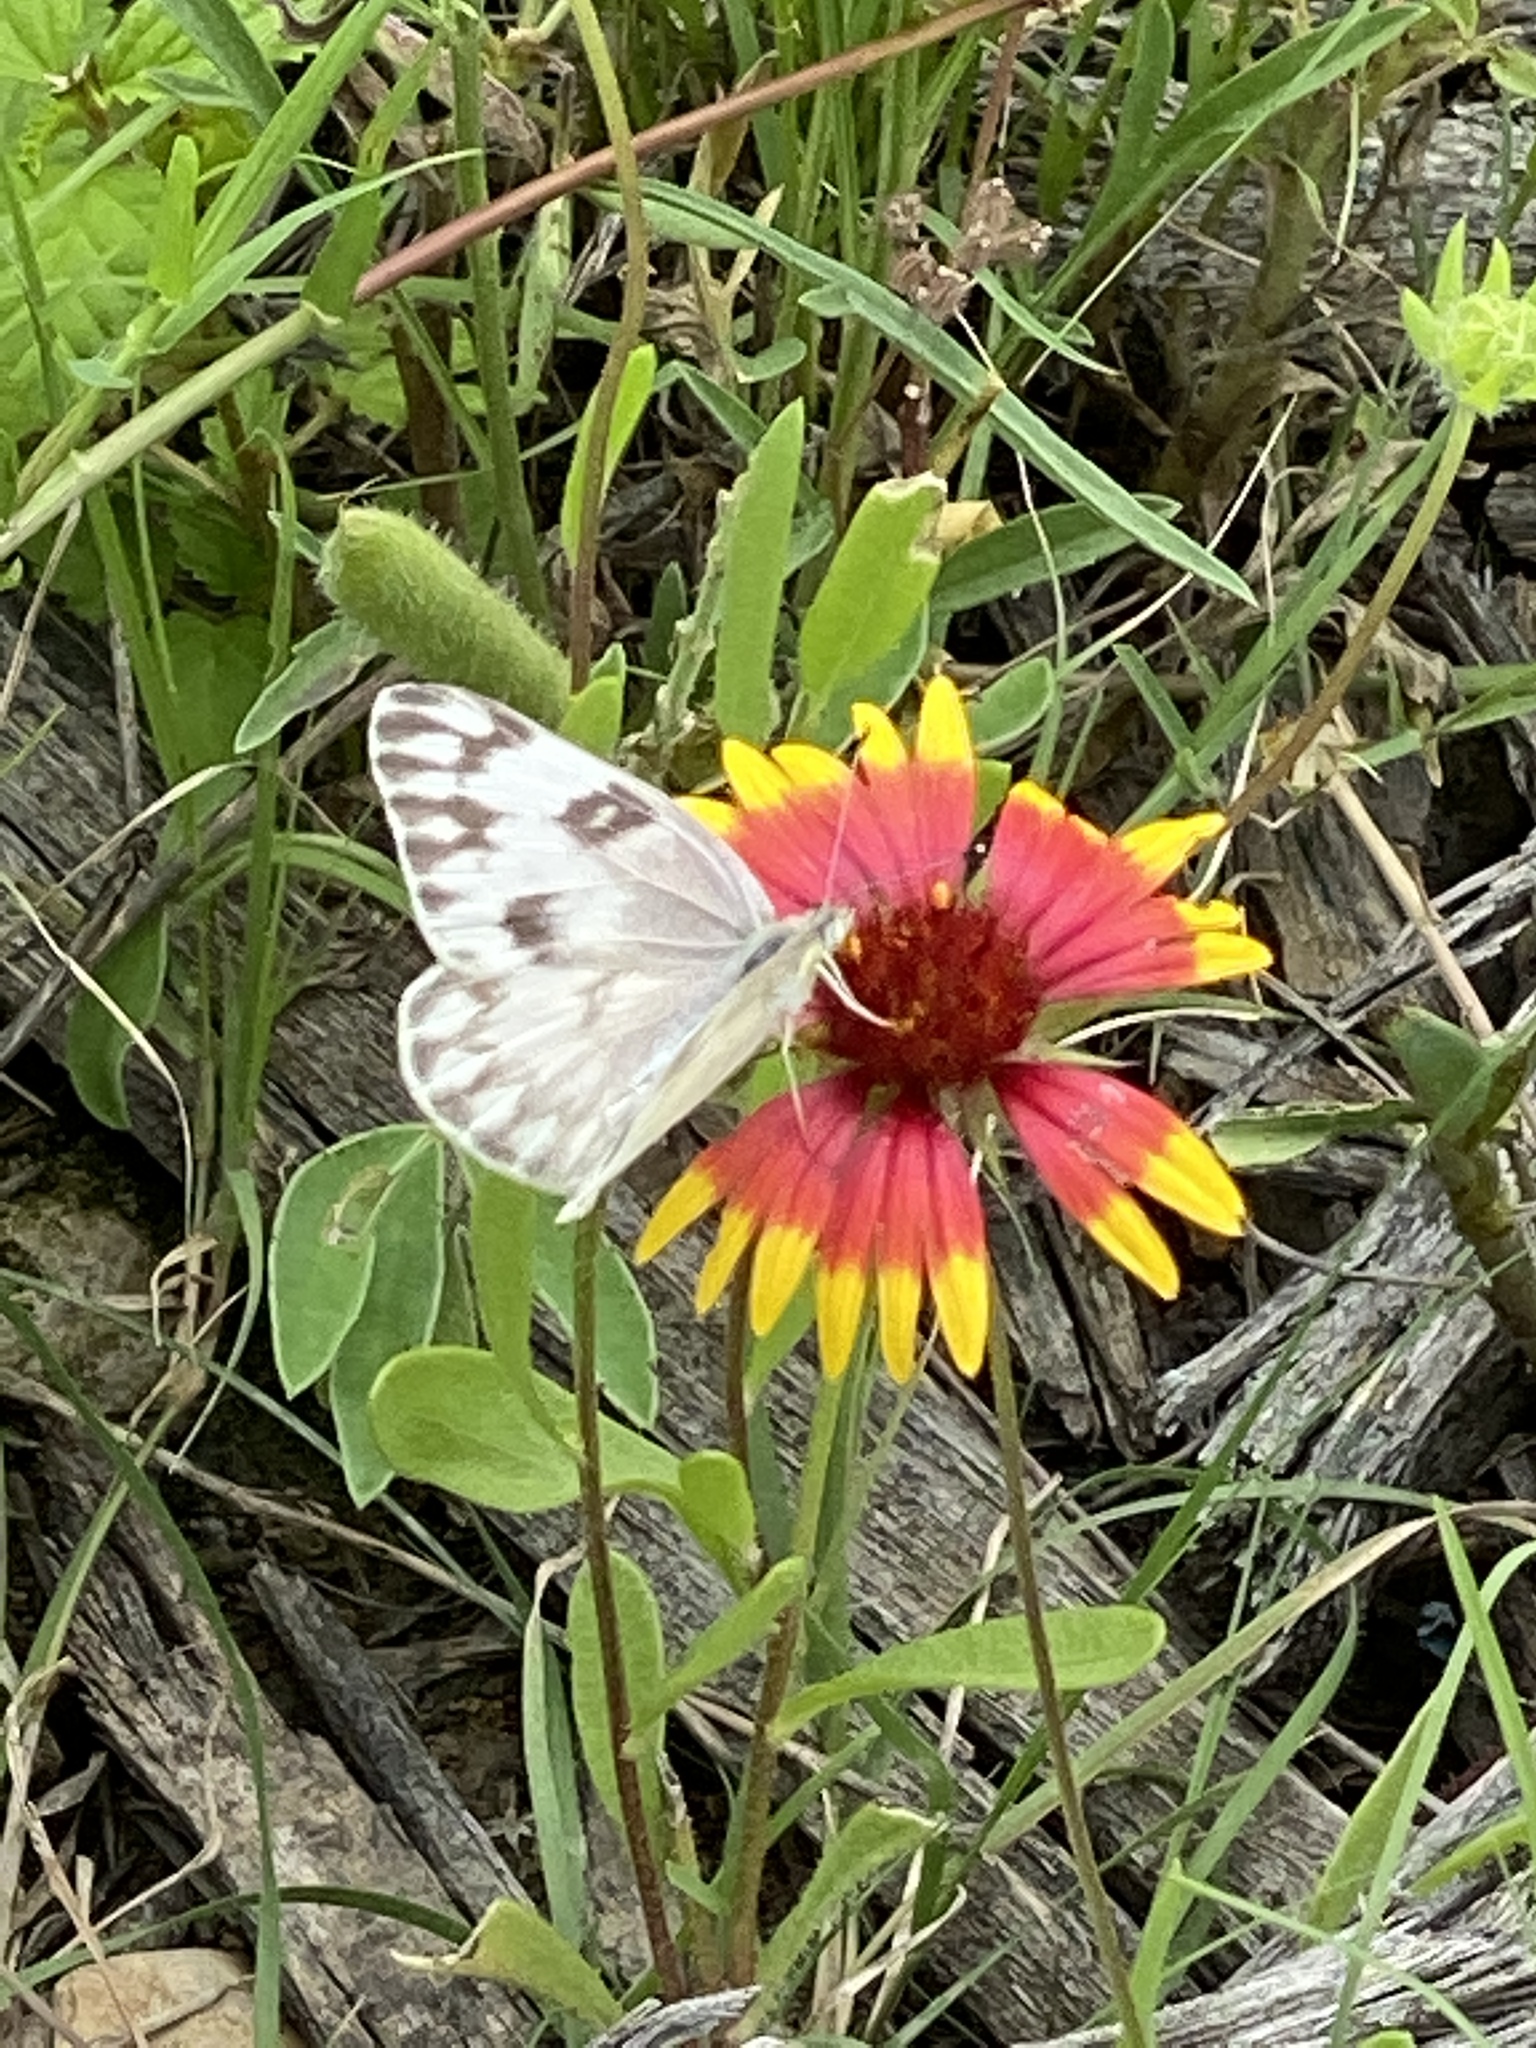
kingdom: Animalia
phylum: Arthropoda
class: Insecta
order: Lepidoptera
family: Pieridae
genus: Pontia
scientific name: Pontia protodice
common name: Checkered white
